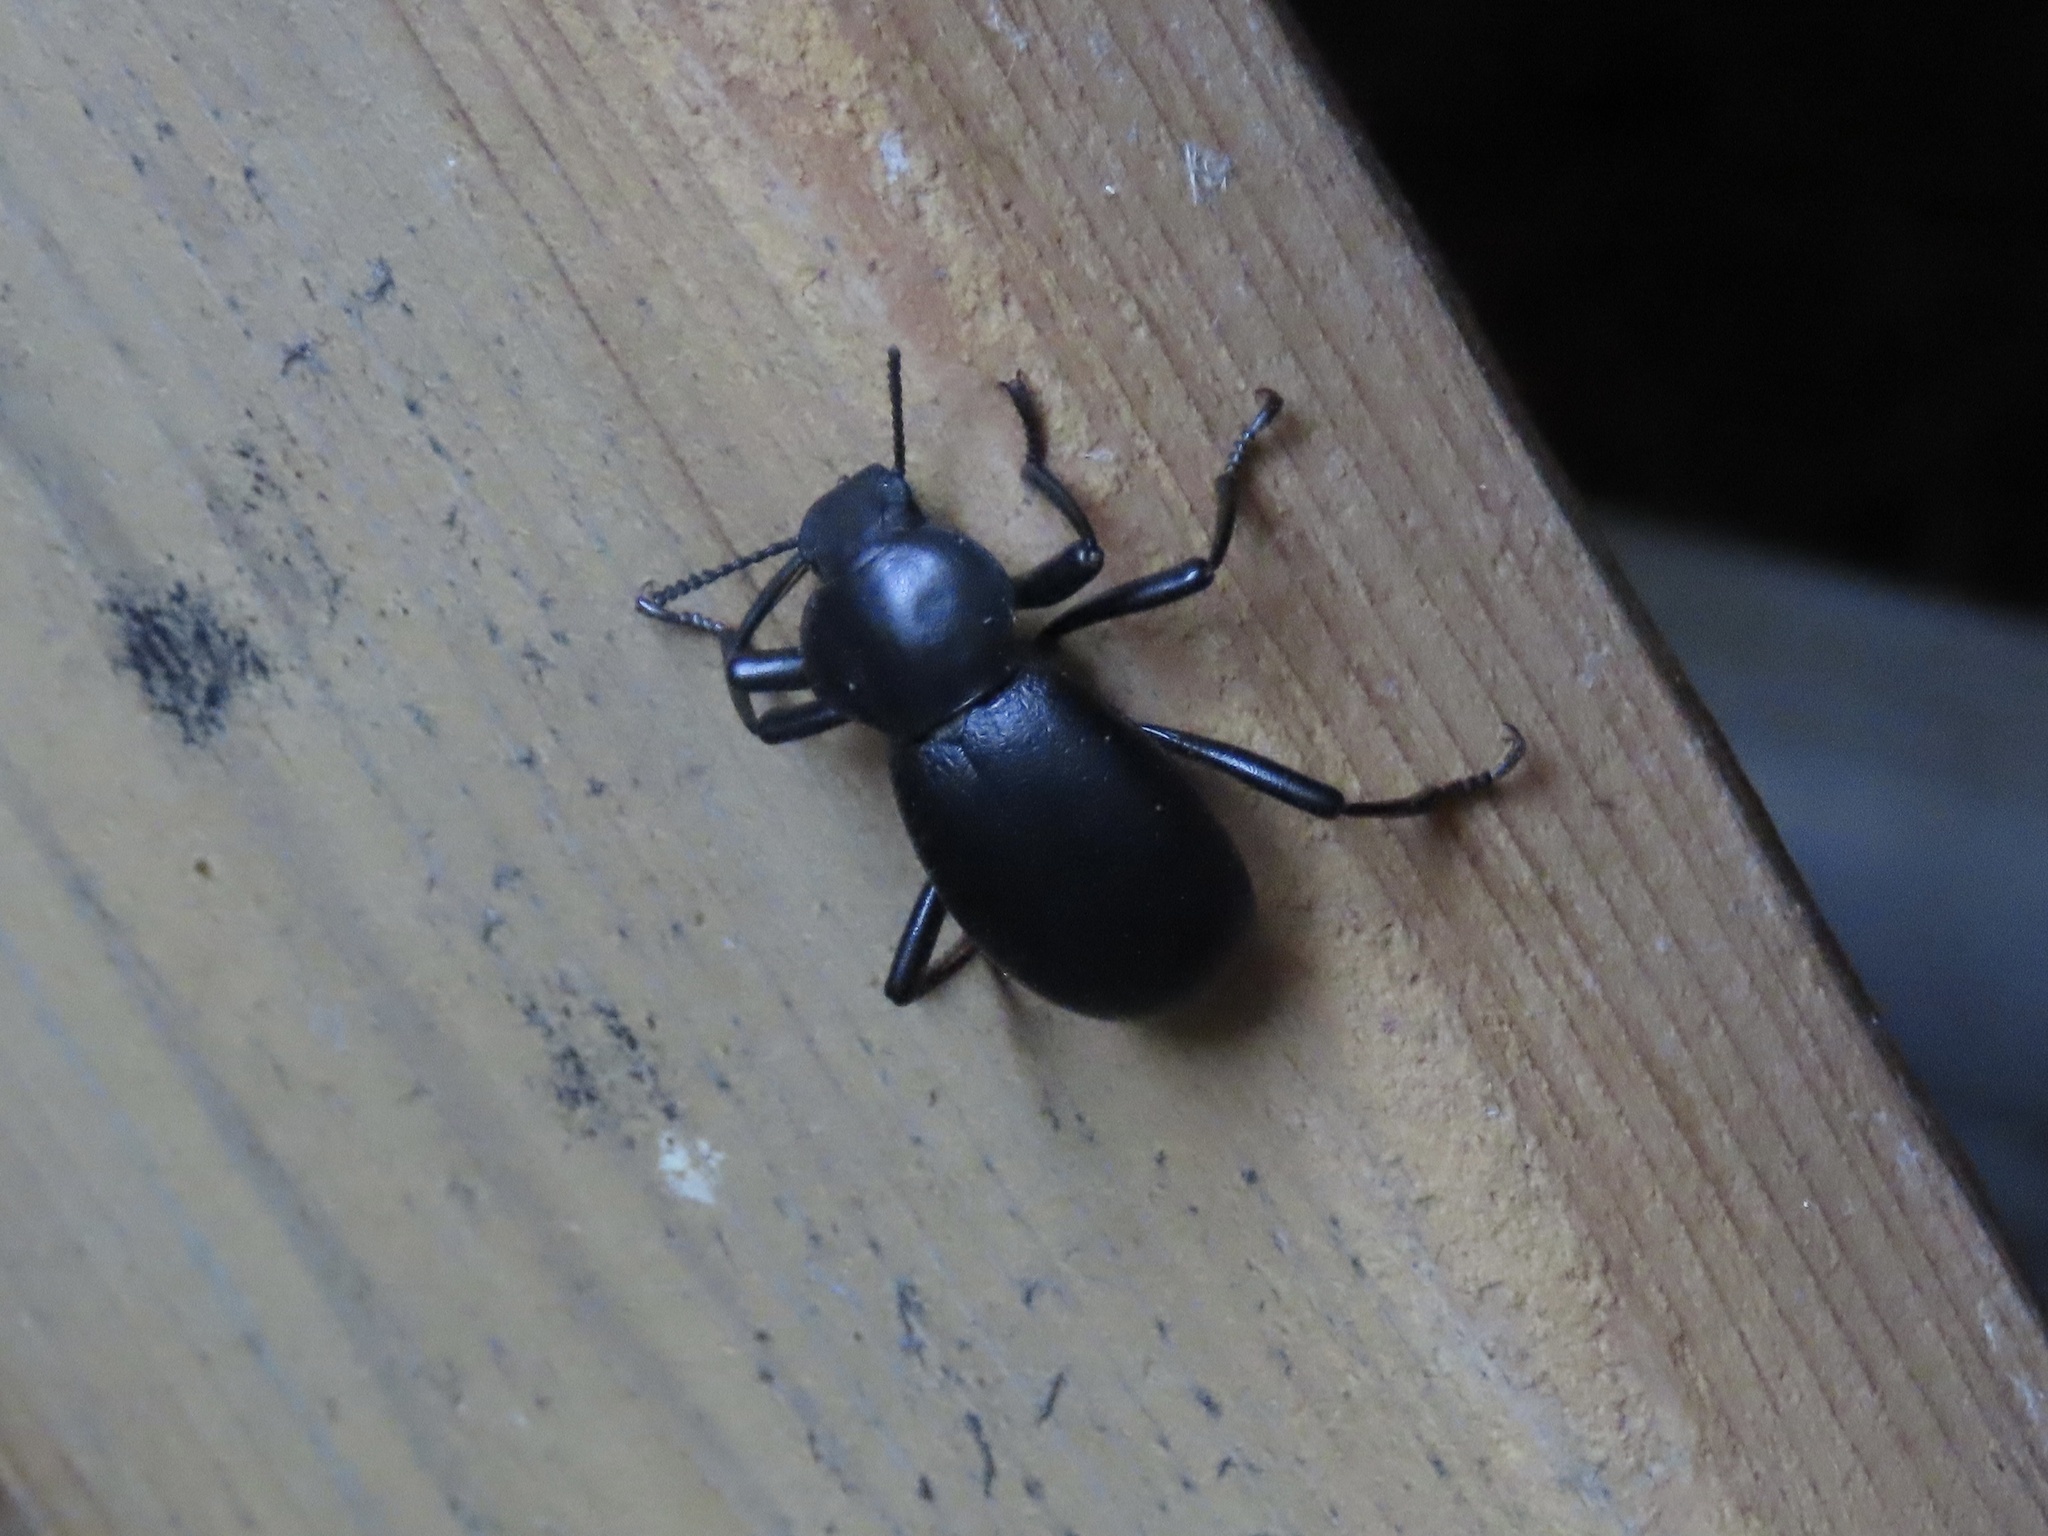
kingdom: Animalia
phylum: Arthropoda
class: Insecta
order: Coleoptera
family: Tenebrionidae
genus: Coelocnemis
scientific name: Coelocnemis dilaticollis
